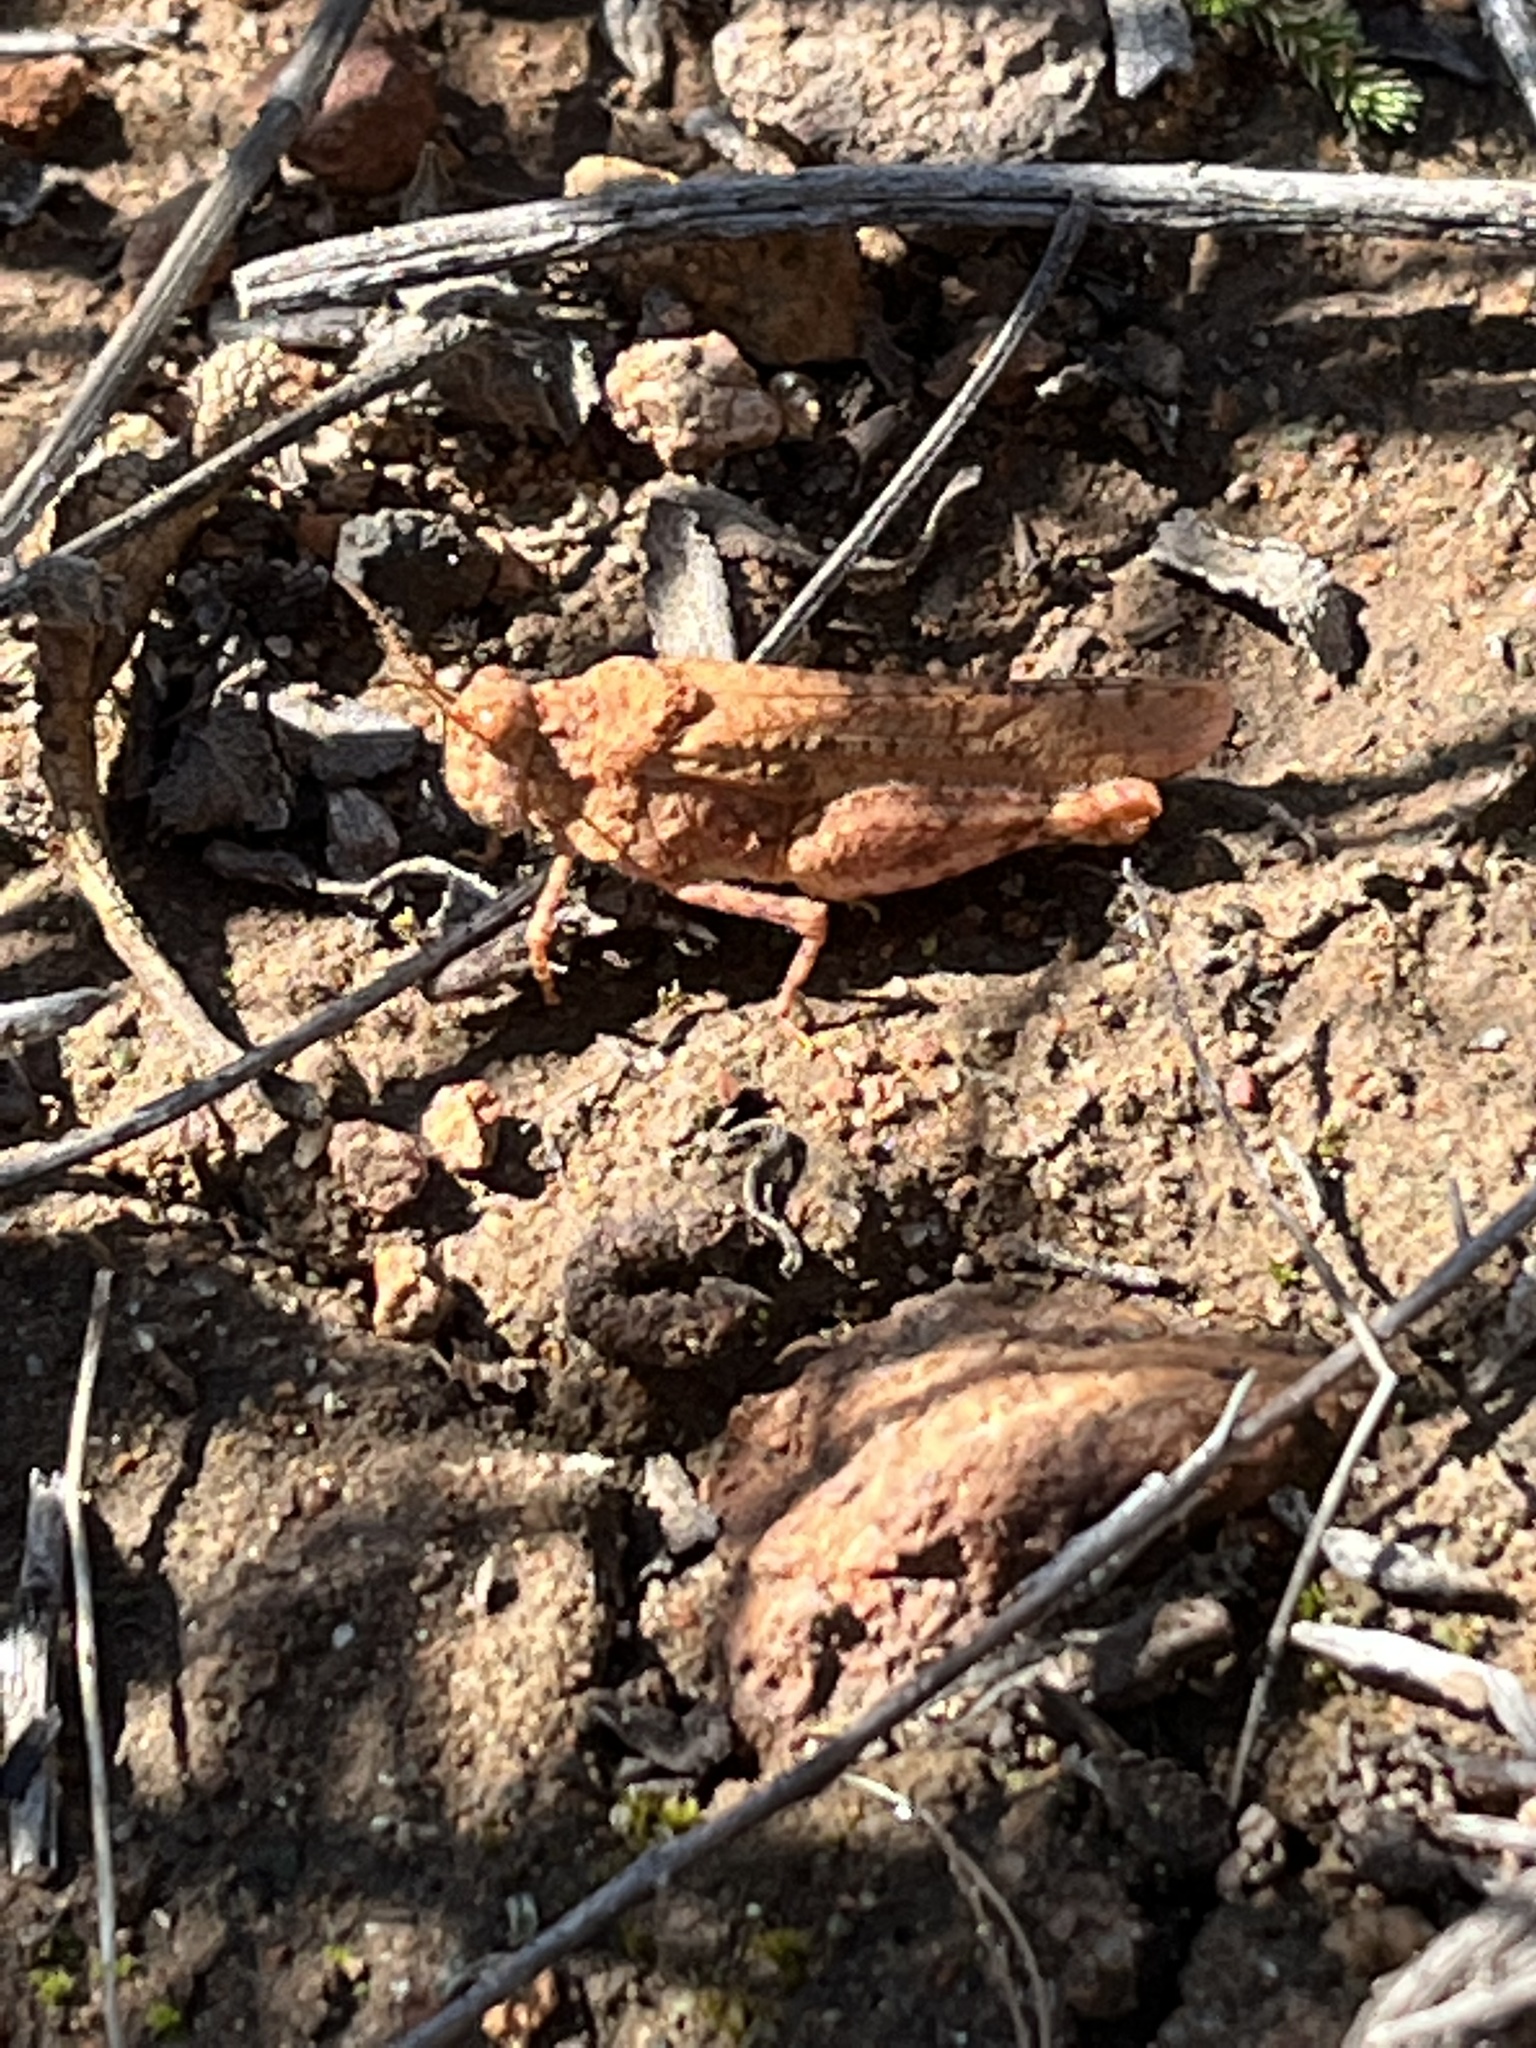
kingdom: Animalia
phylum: Arthropoda
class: Insecta
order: Orthoptera
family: Acrididae
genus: Cibolacris
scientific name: Cibolacris parviceps
